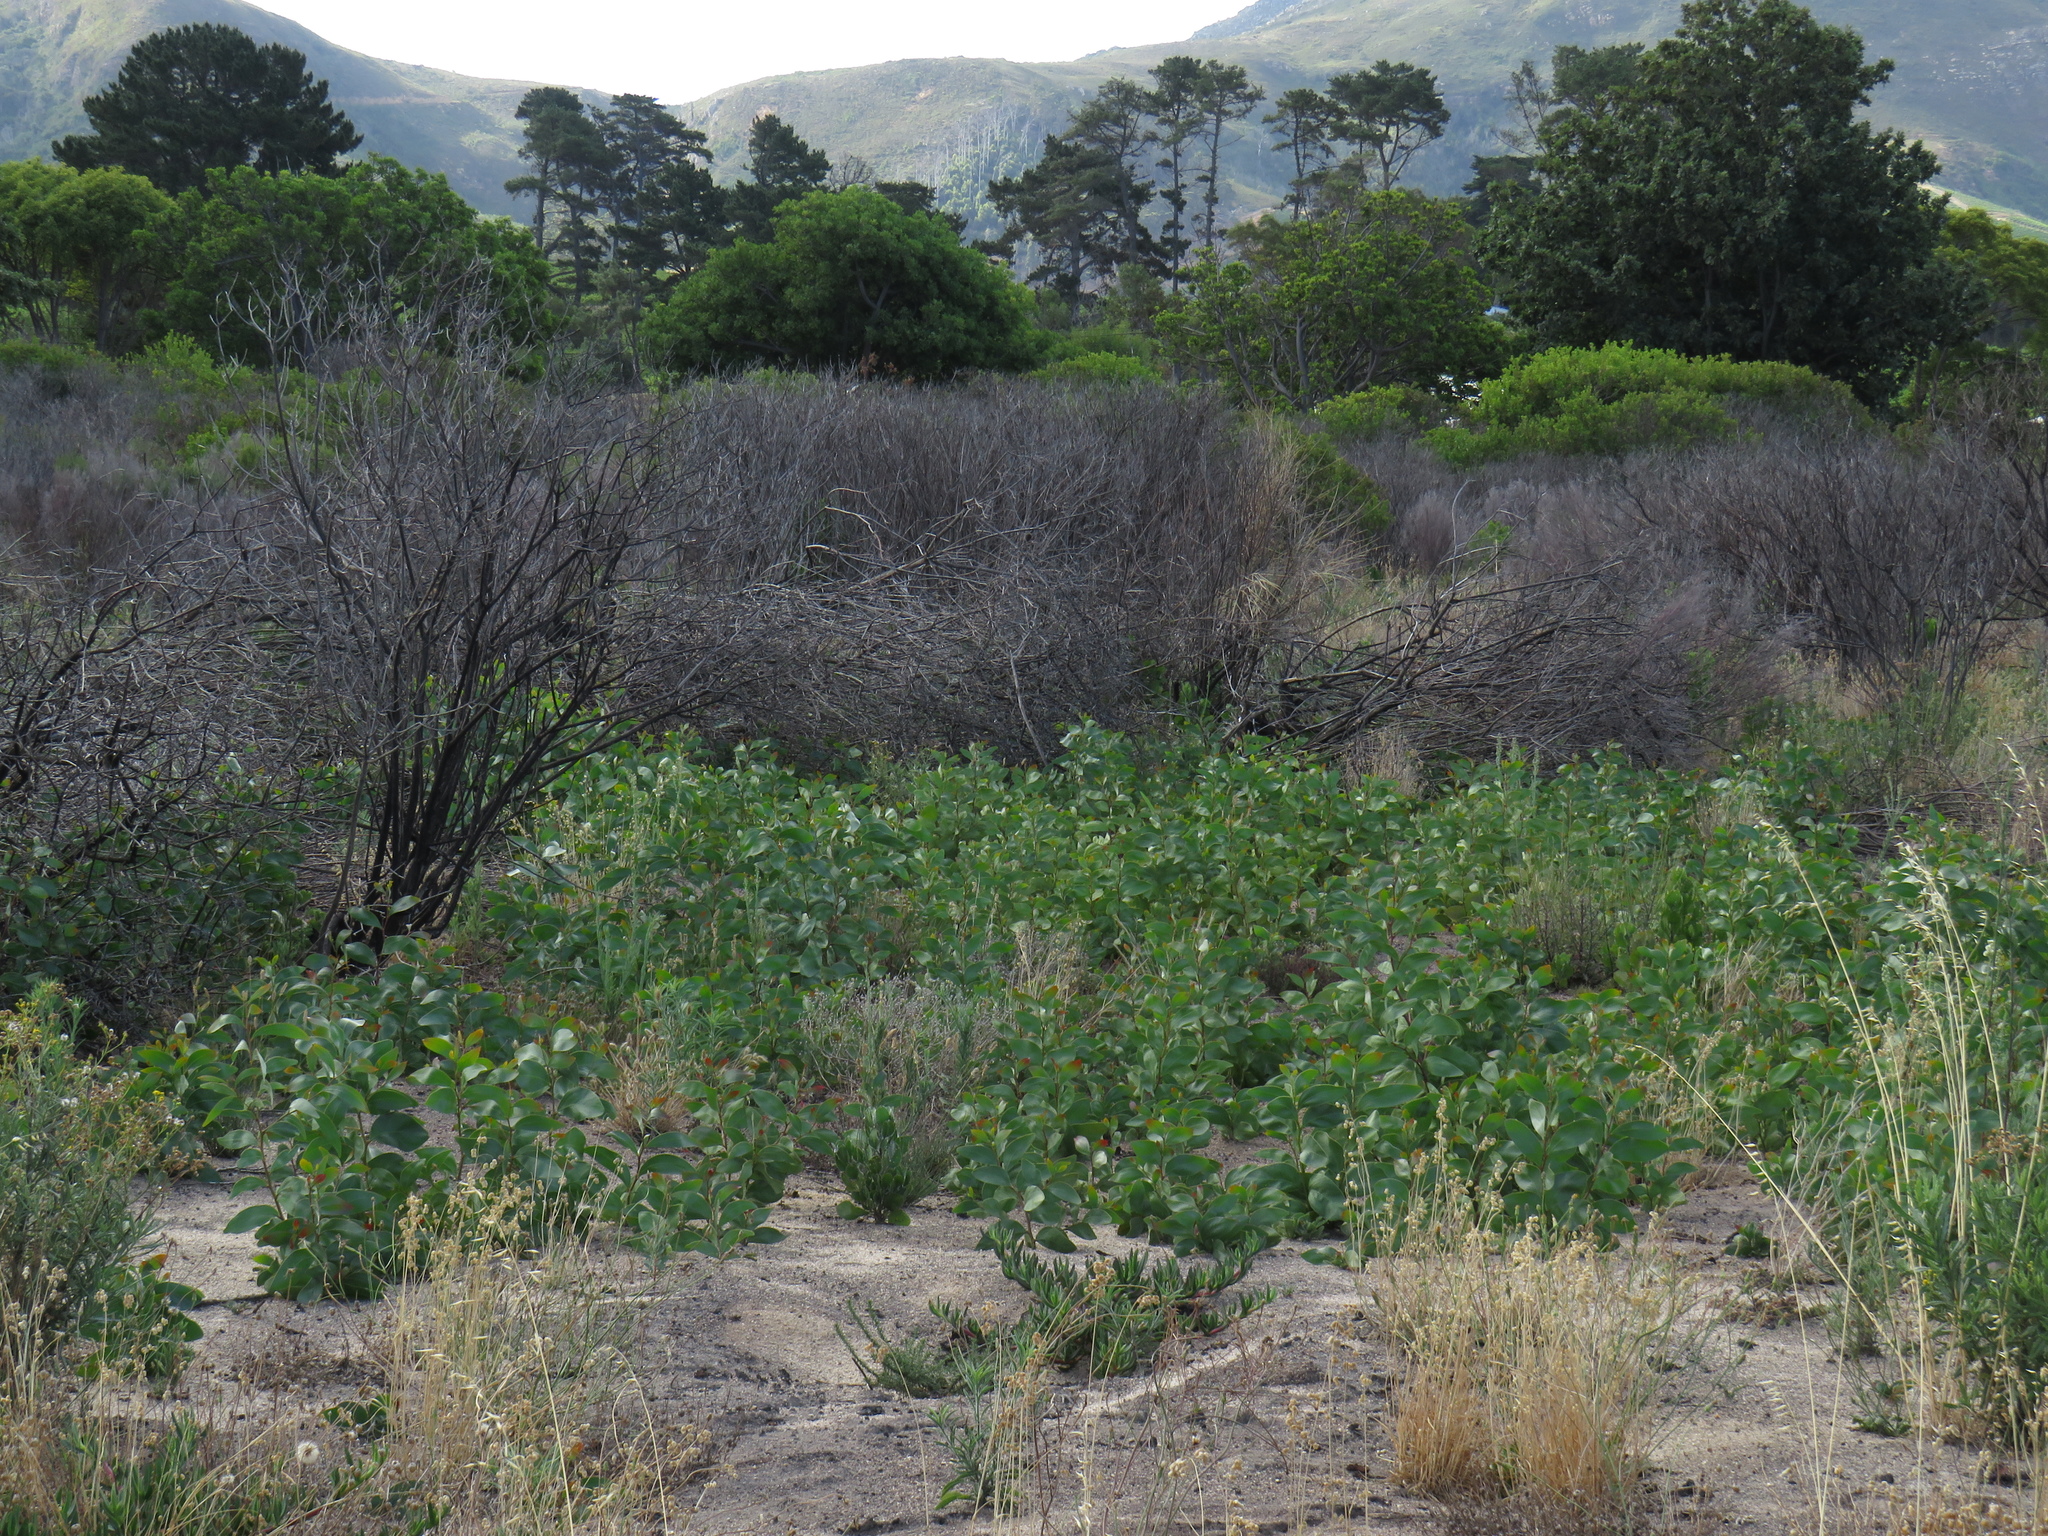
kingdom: Plantae
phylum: Tracheophyta
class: Magnoliopsida
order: Fabales
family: Fabaceae
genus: Acacia
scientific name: Acacia pycnantha
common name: Golden wattle
